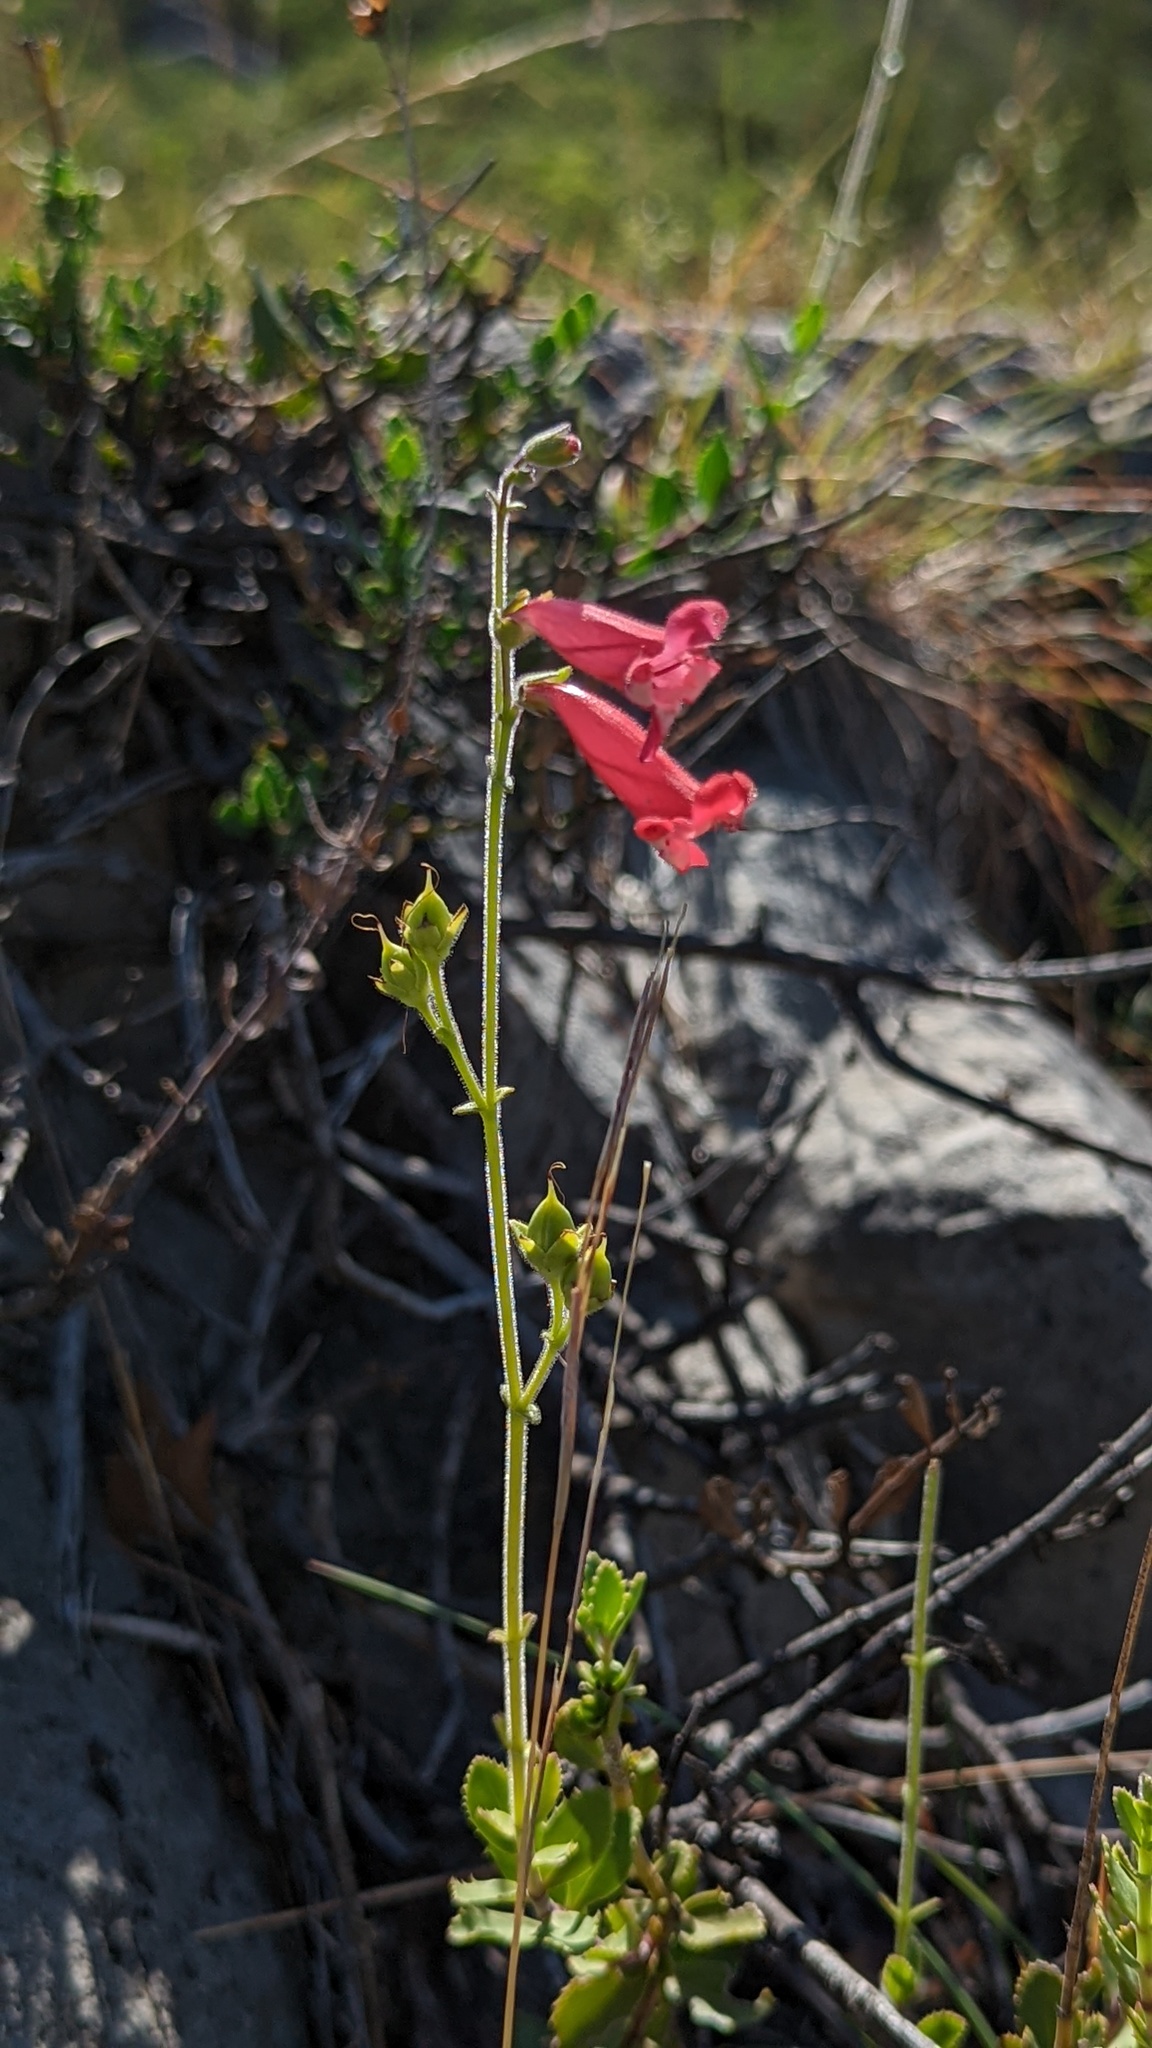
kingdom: Plantae
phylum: Tracheophyta
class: Magnoliopsida
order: Lamiales
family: Plantaginaceae
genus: Penstemon
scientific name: Penstemon baccharifolius
